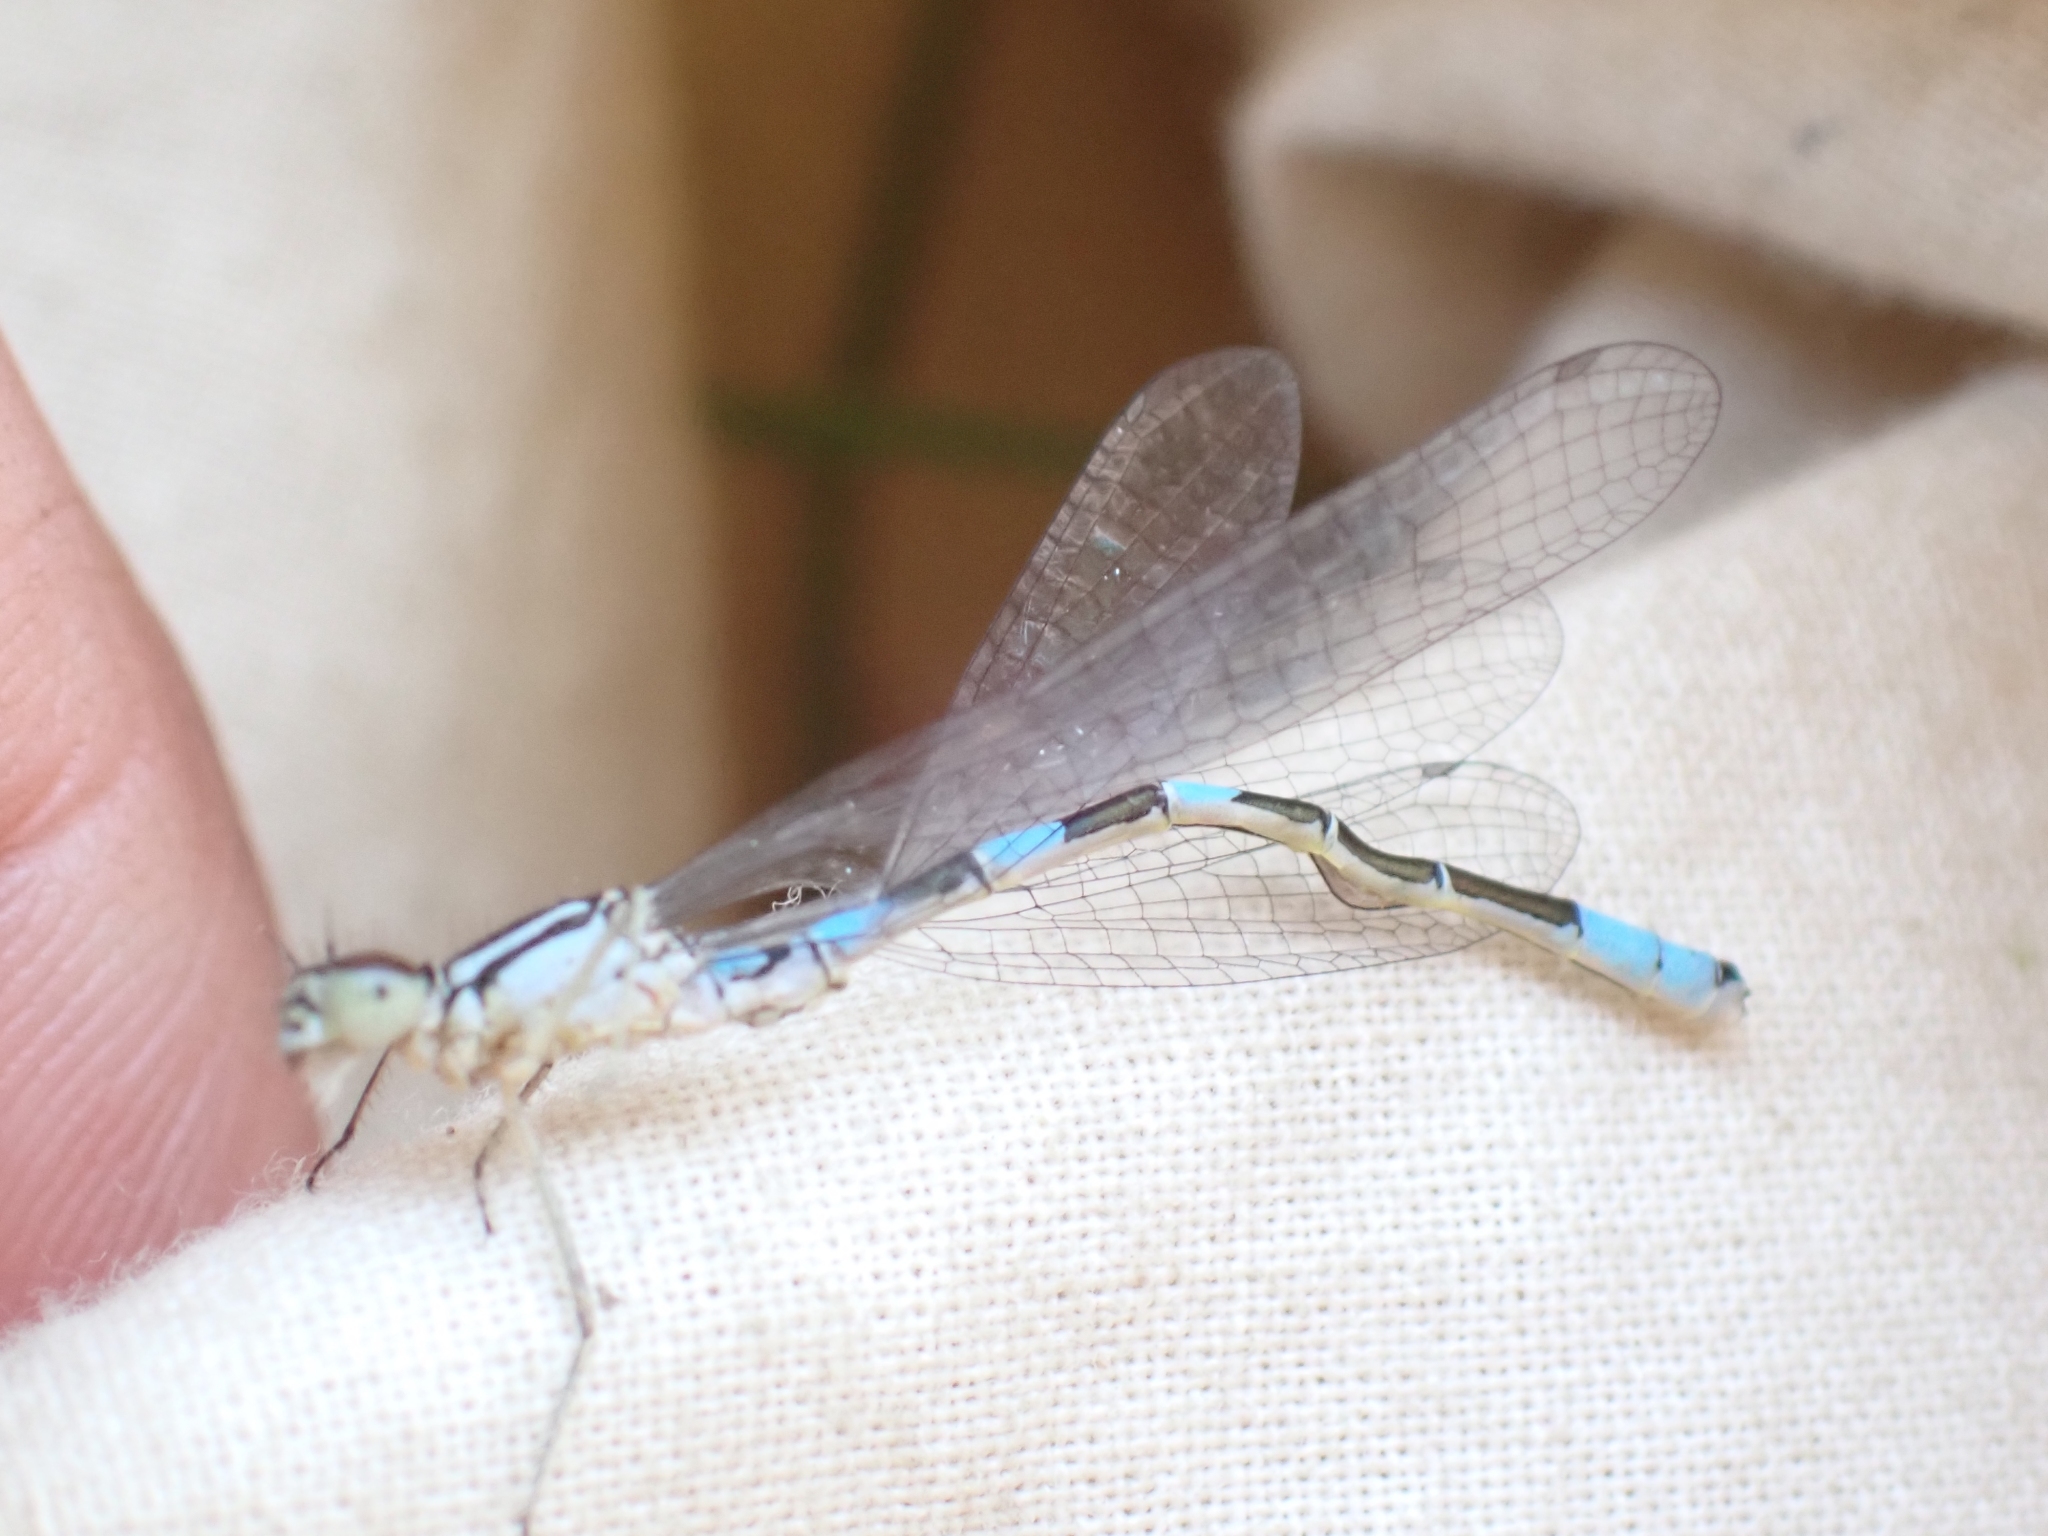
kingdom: Animalia
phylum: Arthropoda
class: Insecta
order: Odonata
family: Coenagrionidae
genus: Coenagrion
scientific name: Coenagrion resolutum
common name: Taiga bluet
